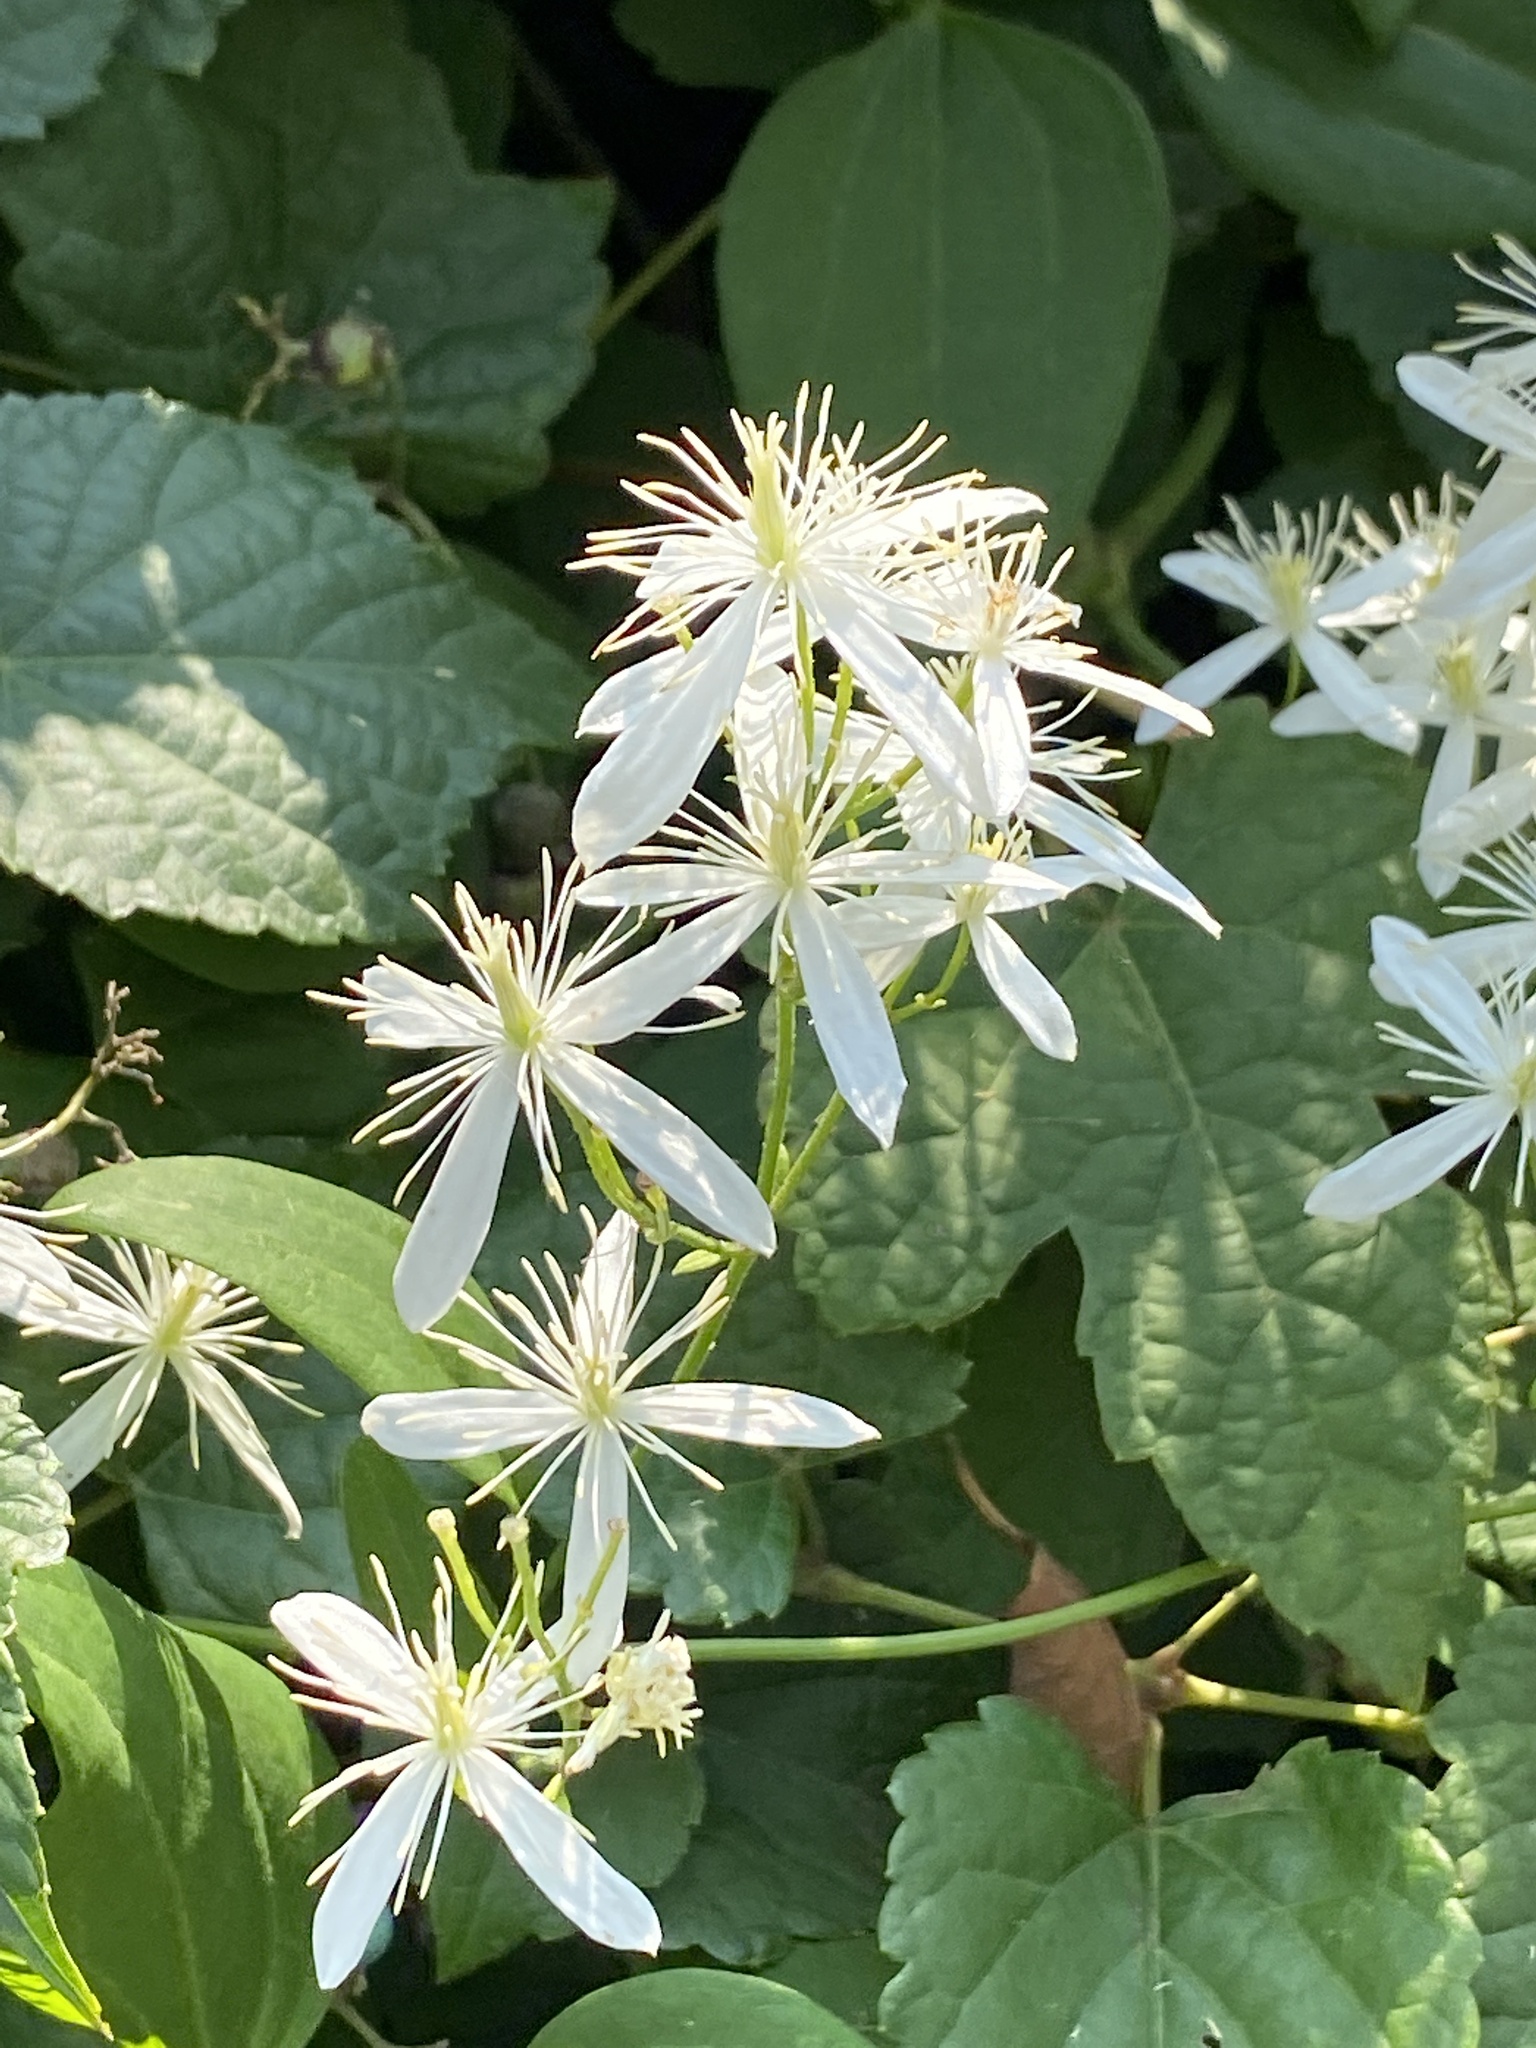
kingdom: Plantae
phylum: Tracheophyta
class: Magnoliopsida
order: Ranunculales
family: Ranunculaceae
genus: Clematis
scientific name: Clematis terniflora
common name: Sweet autumn clematis
